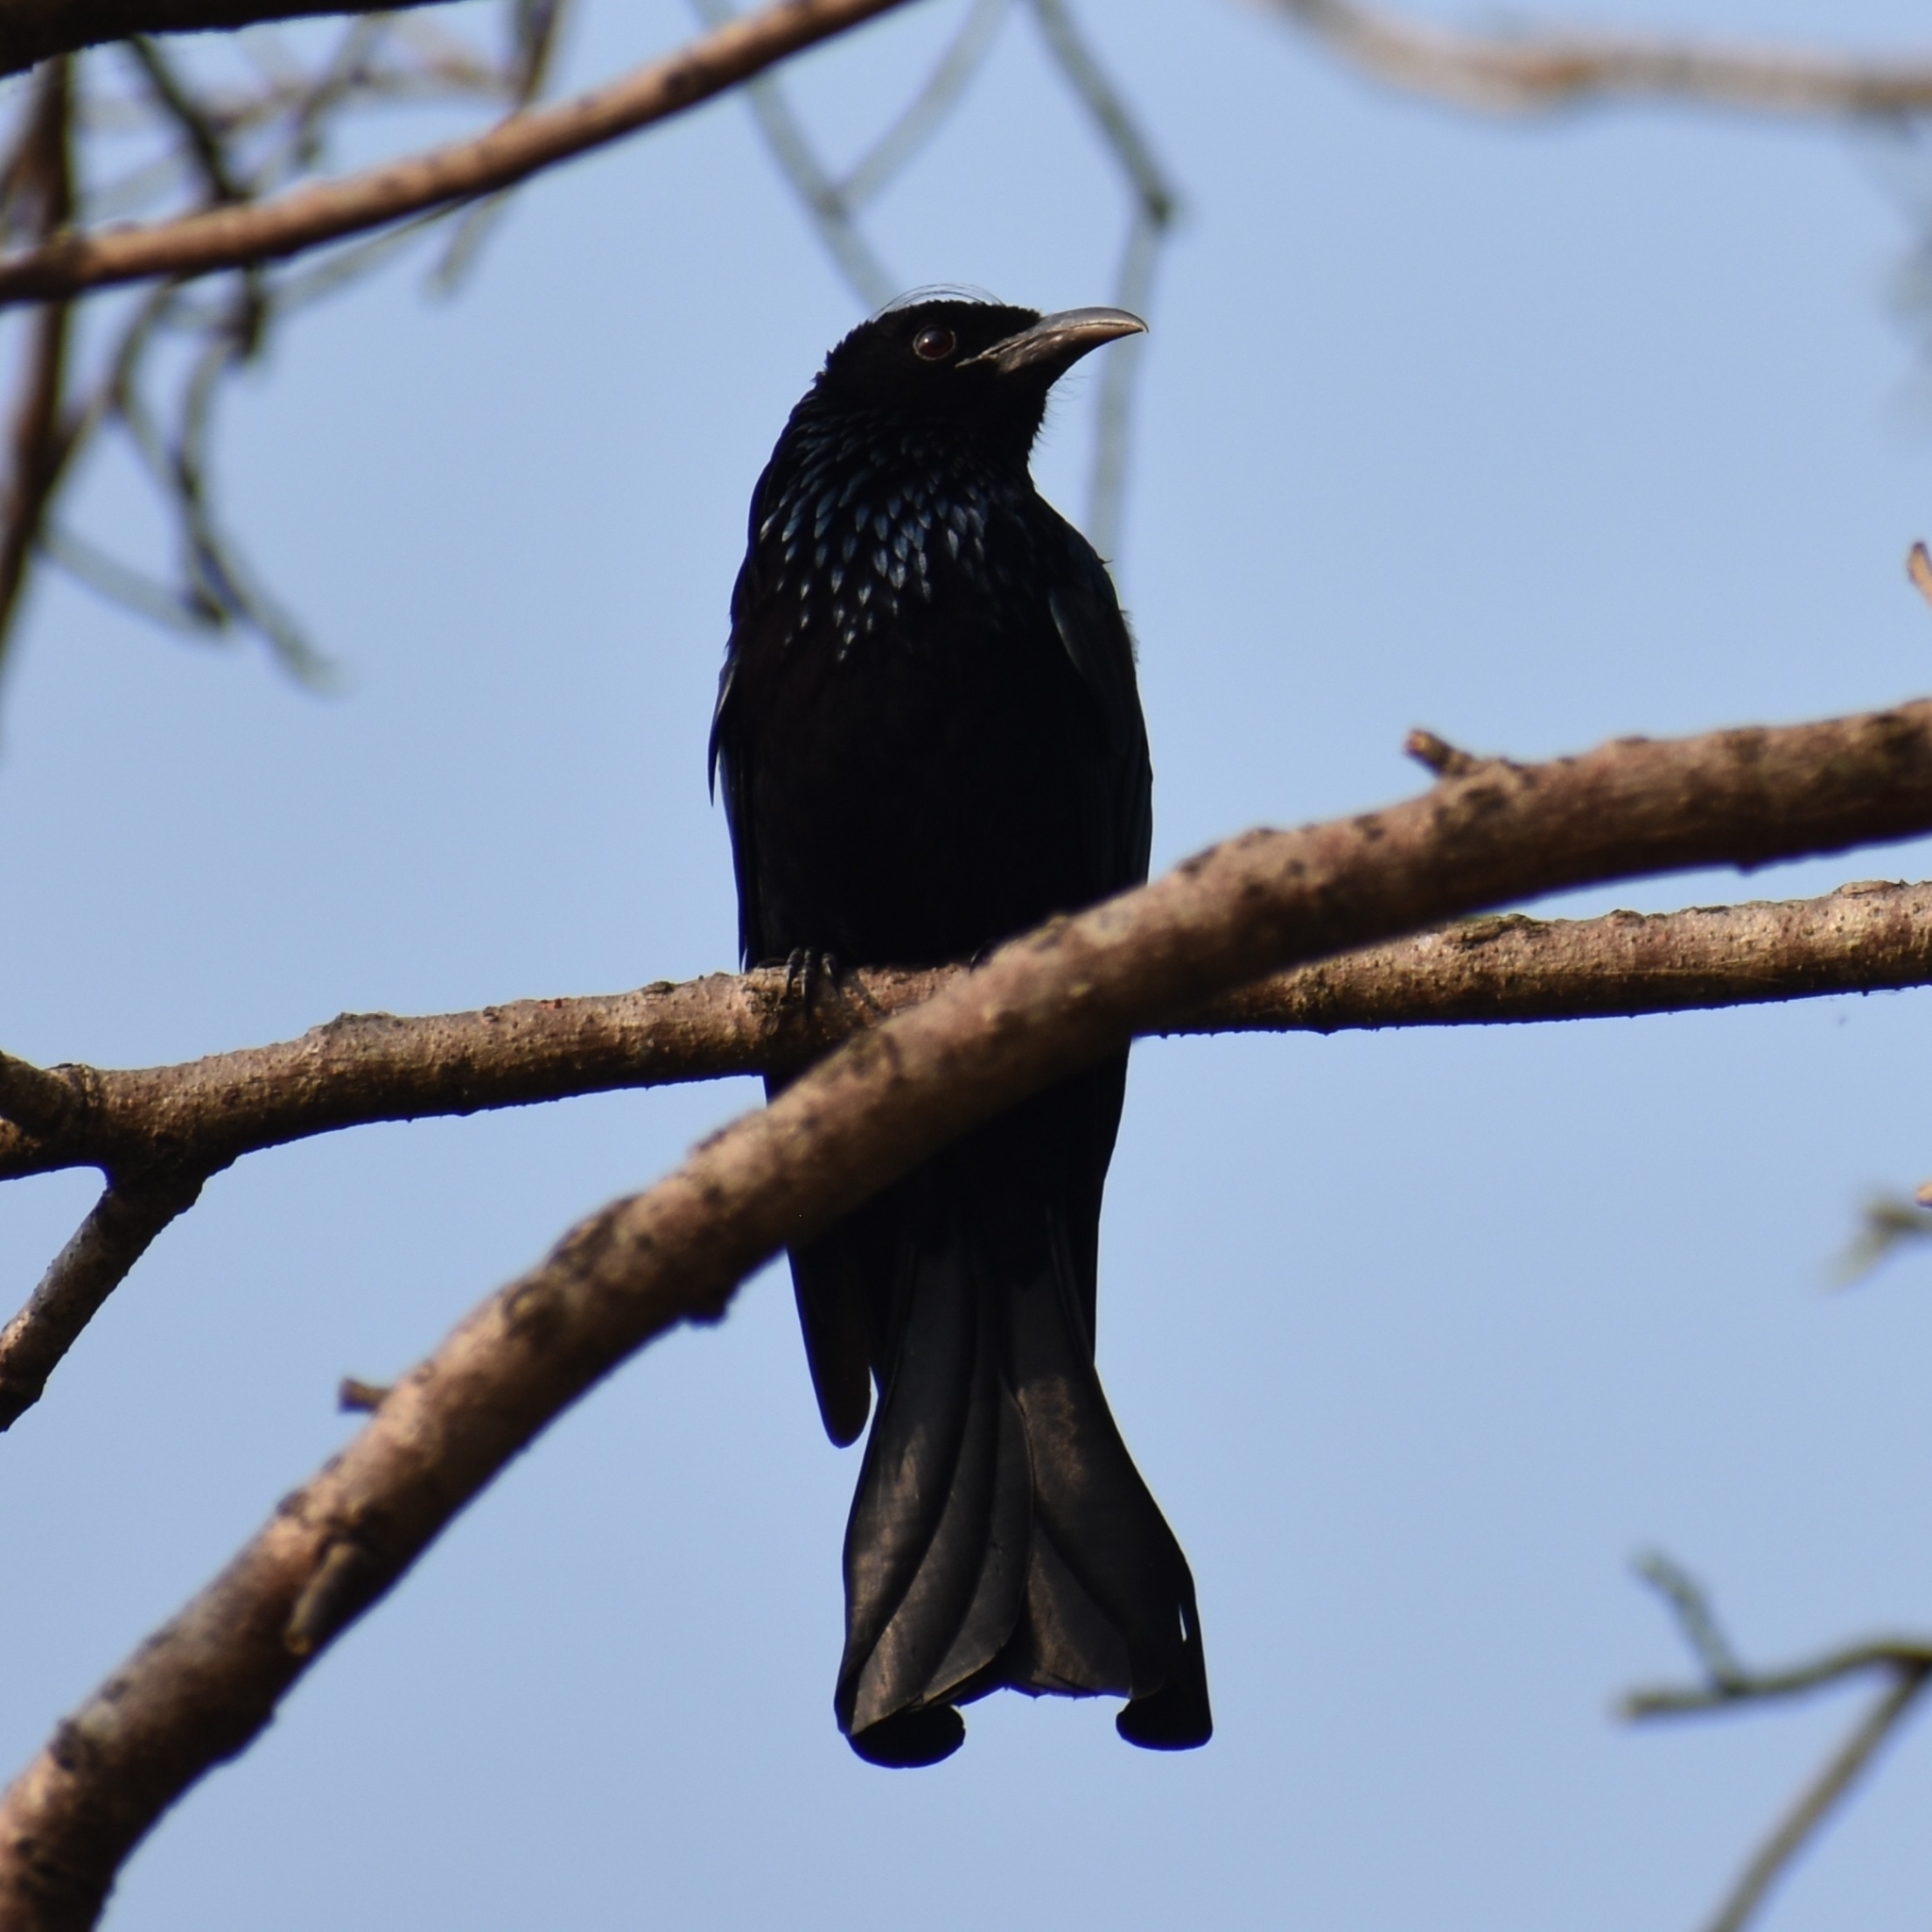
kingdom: Animalia
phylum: Chordata
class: Aves
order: Passeriformes
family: Dicruridae
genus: Dicrurus
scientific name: Dicrurus hottentottus
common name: Hair-crested drongo
